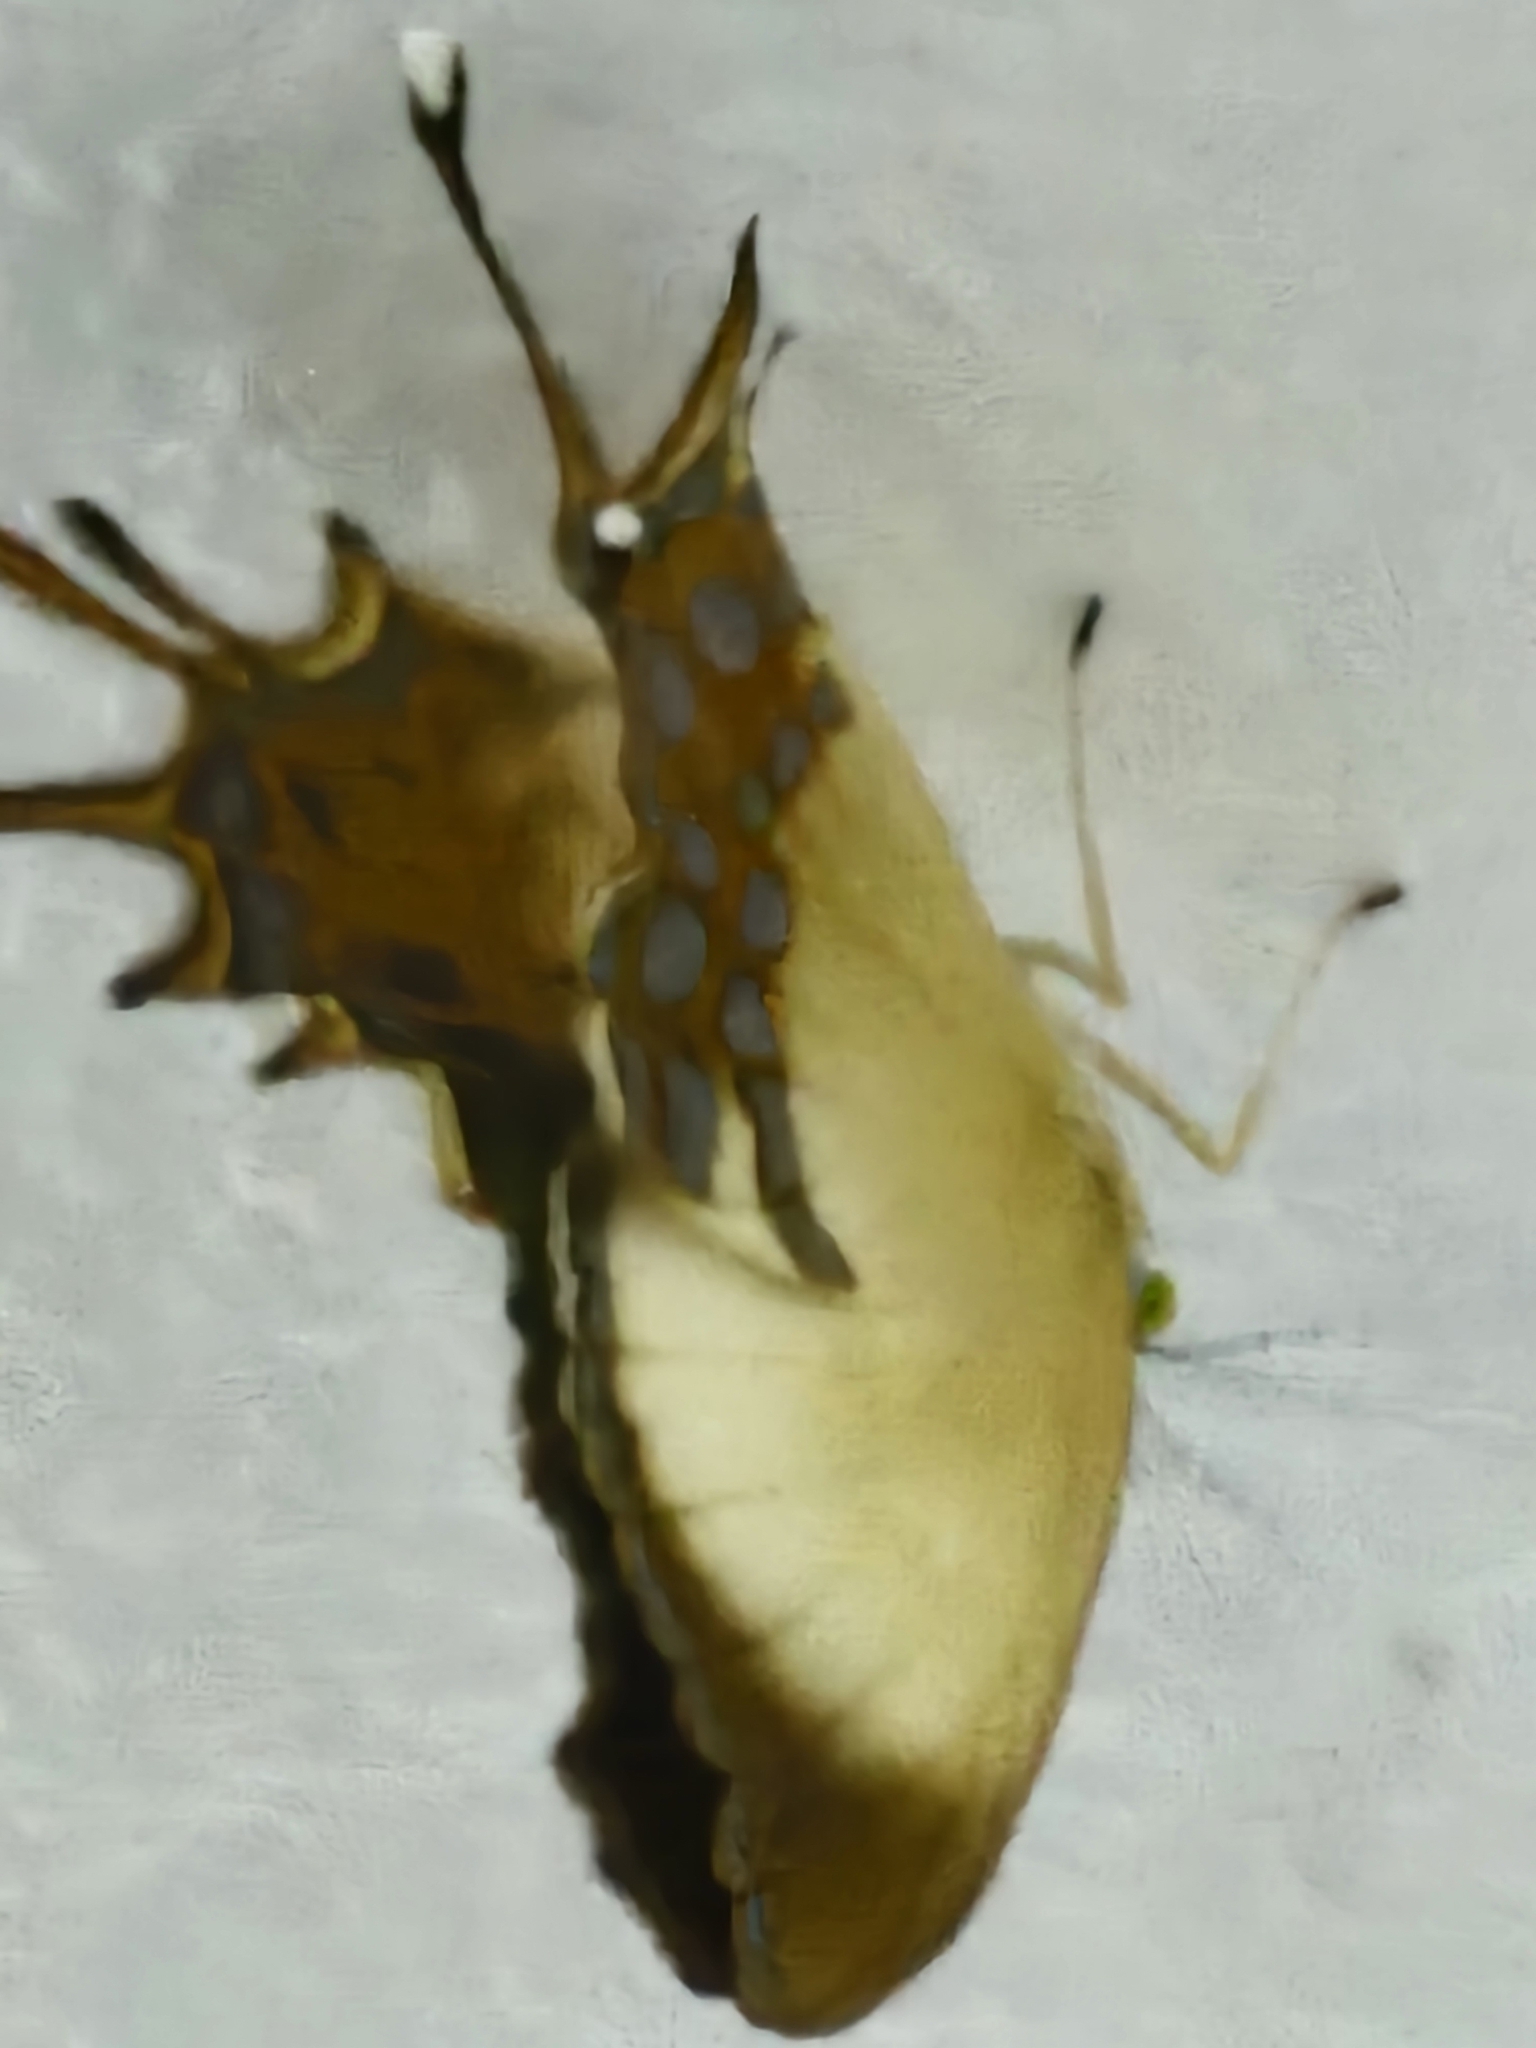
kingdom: Animalia
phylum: Arthropoda
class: Insecta
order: Lepidoptera
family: Riodinidae
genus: Helicopis
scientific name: Helicopis cupido
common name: Spangled cupid
